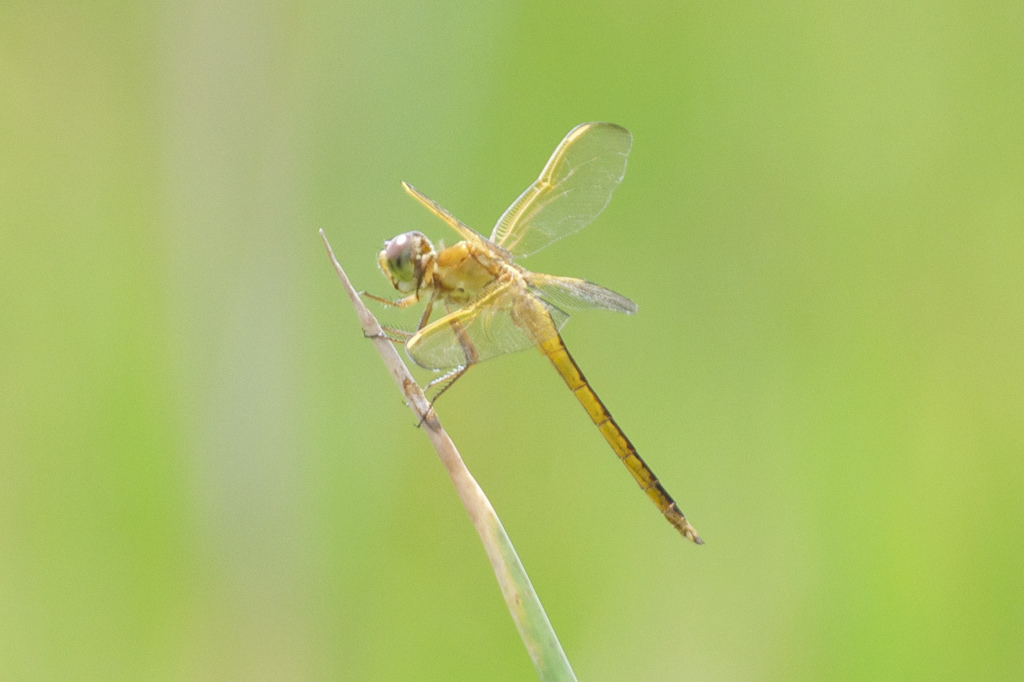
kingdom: Animalia
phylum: Arthropoda
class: Insecta
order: Odonata
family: Libellulidae
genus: Libellula
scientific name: Libellula needhami
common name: Needham's skimmer
